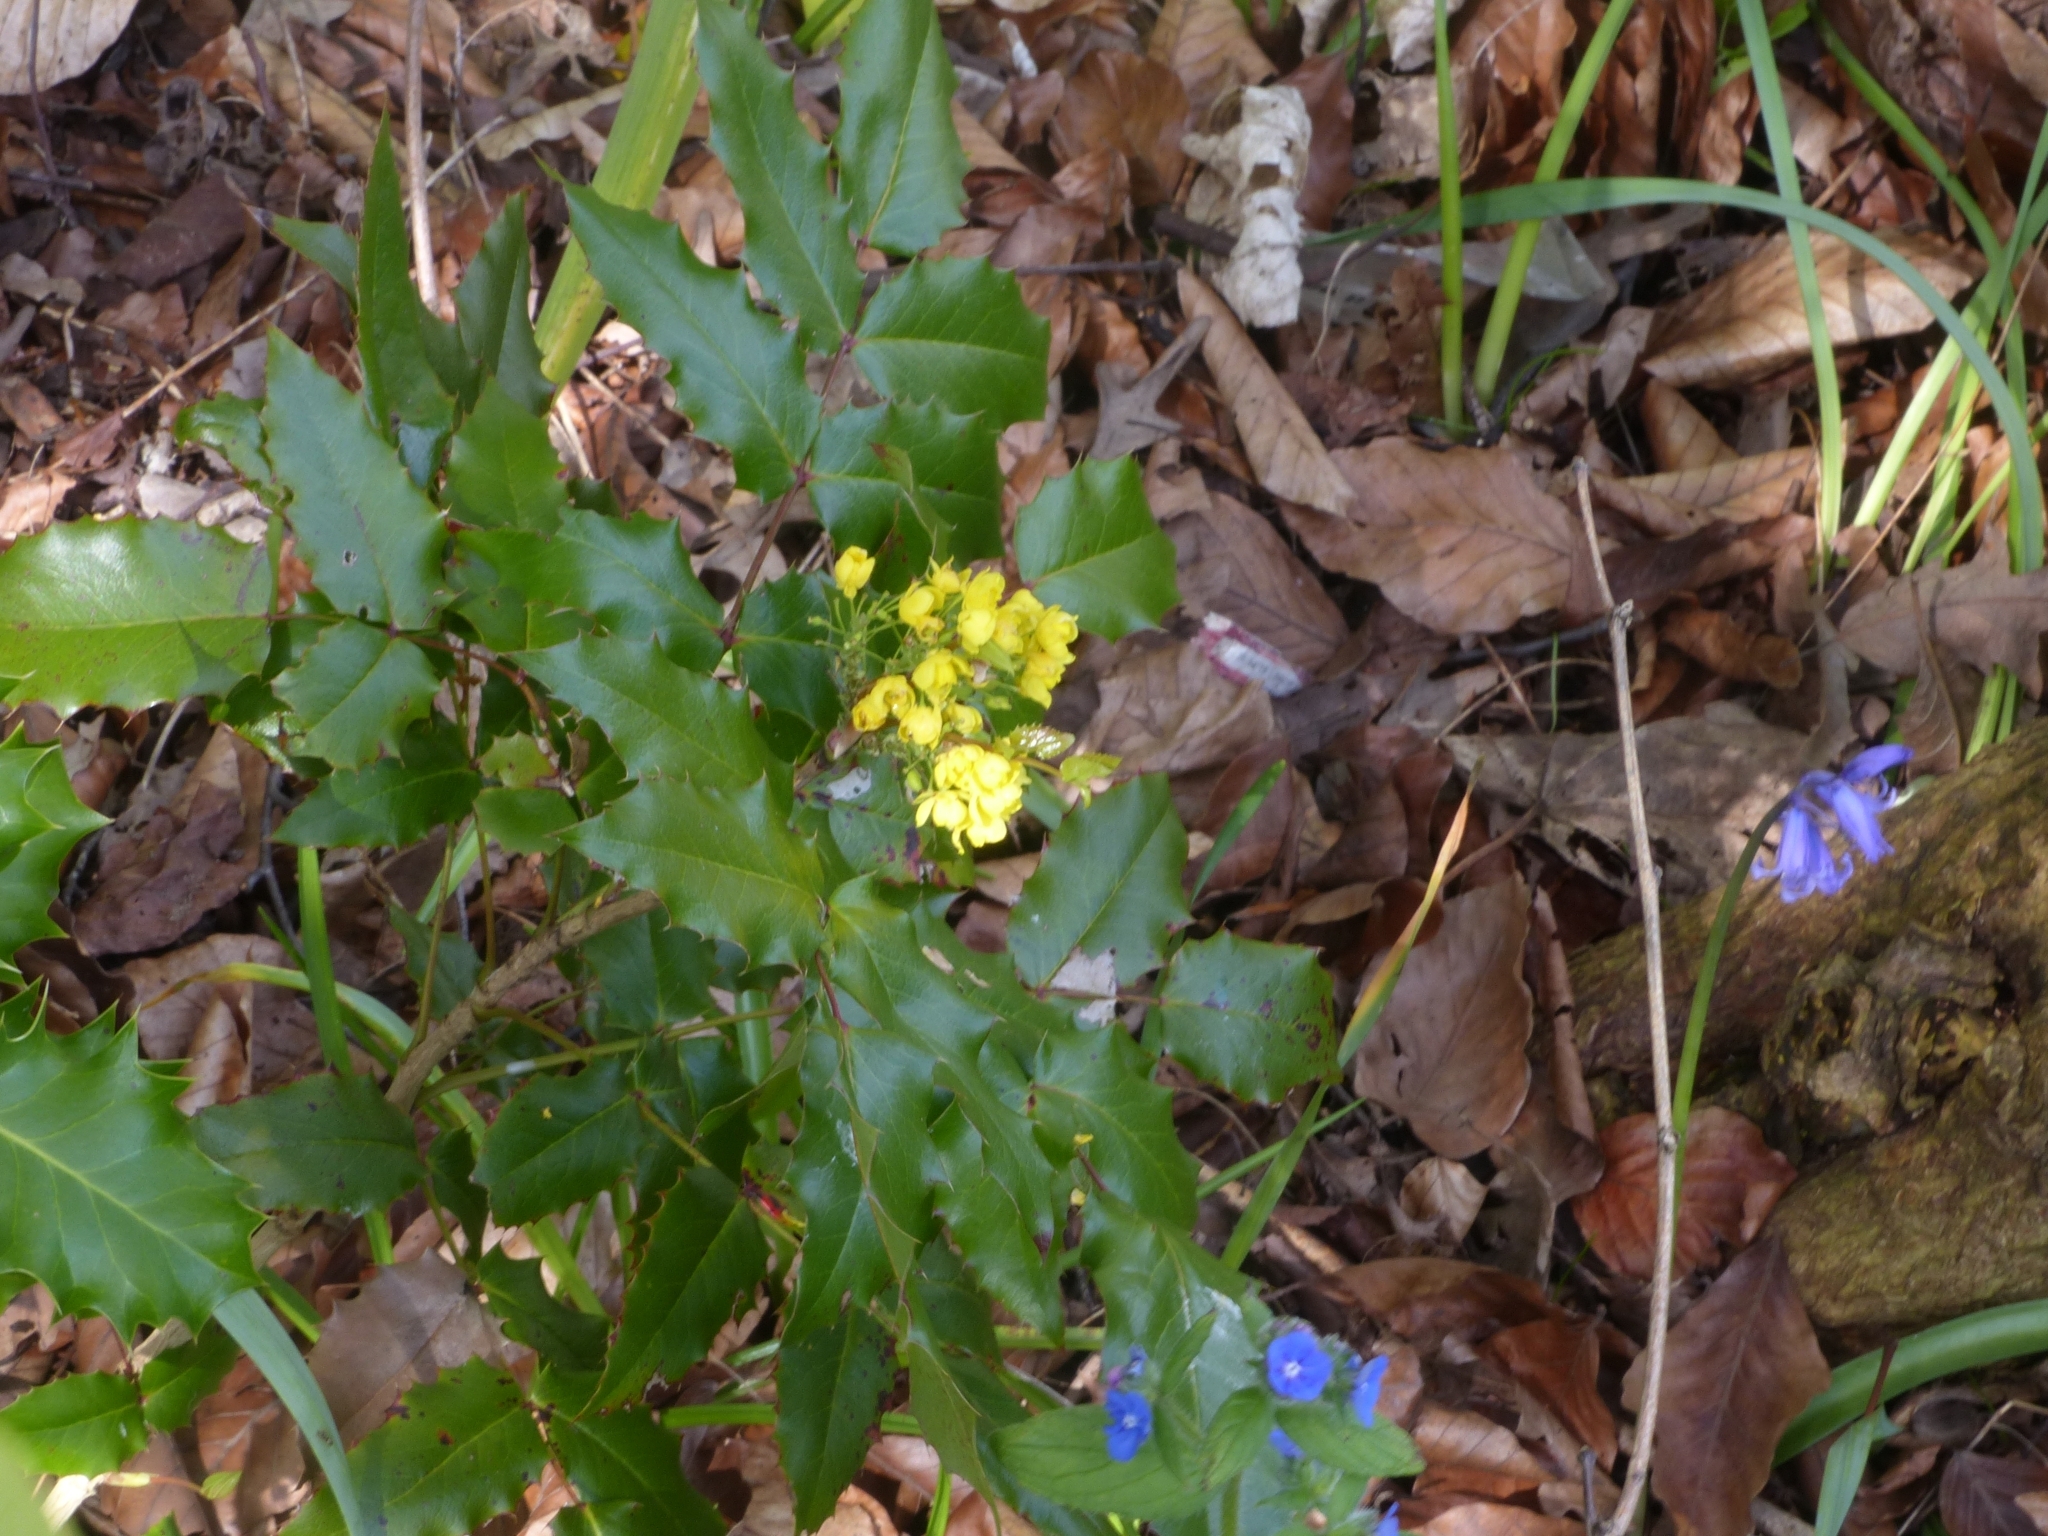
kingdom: Plantae
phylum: Tracheophyta
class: Magnoliopsida
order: Ranunculales
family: Berberidaceae
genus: Mahonia
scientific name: Mahonia aquifolium
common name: Oregon-grape
